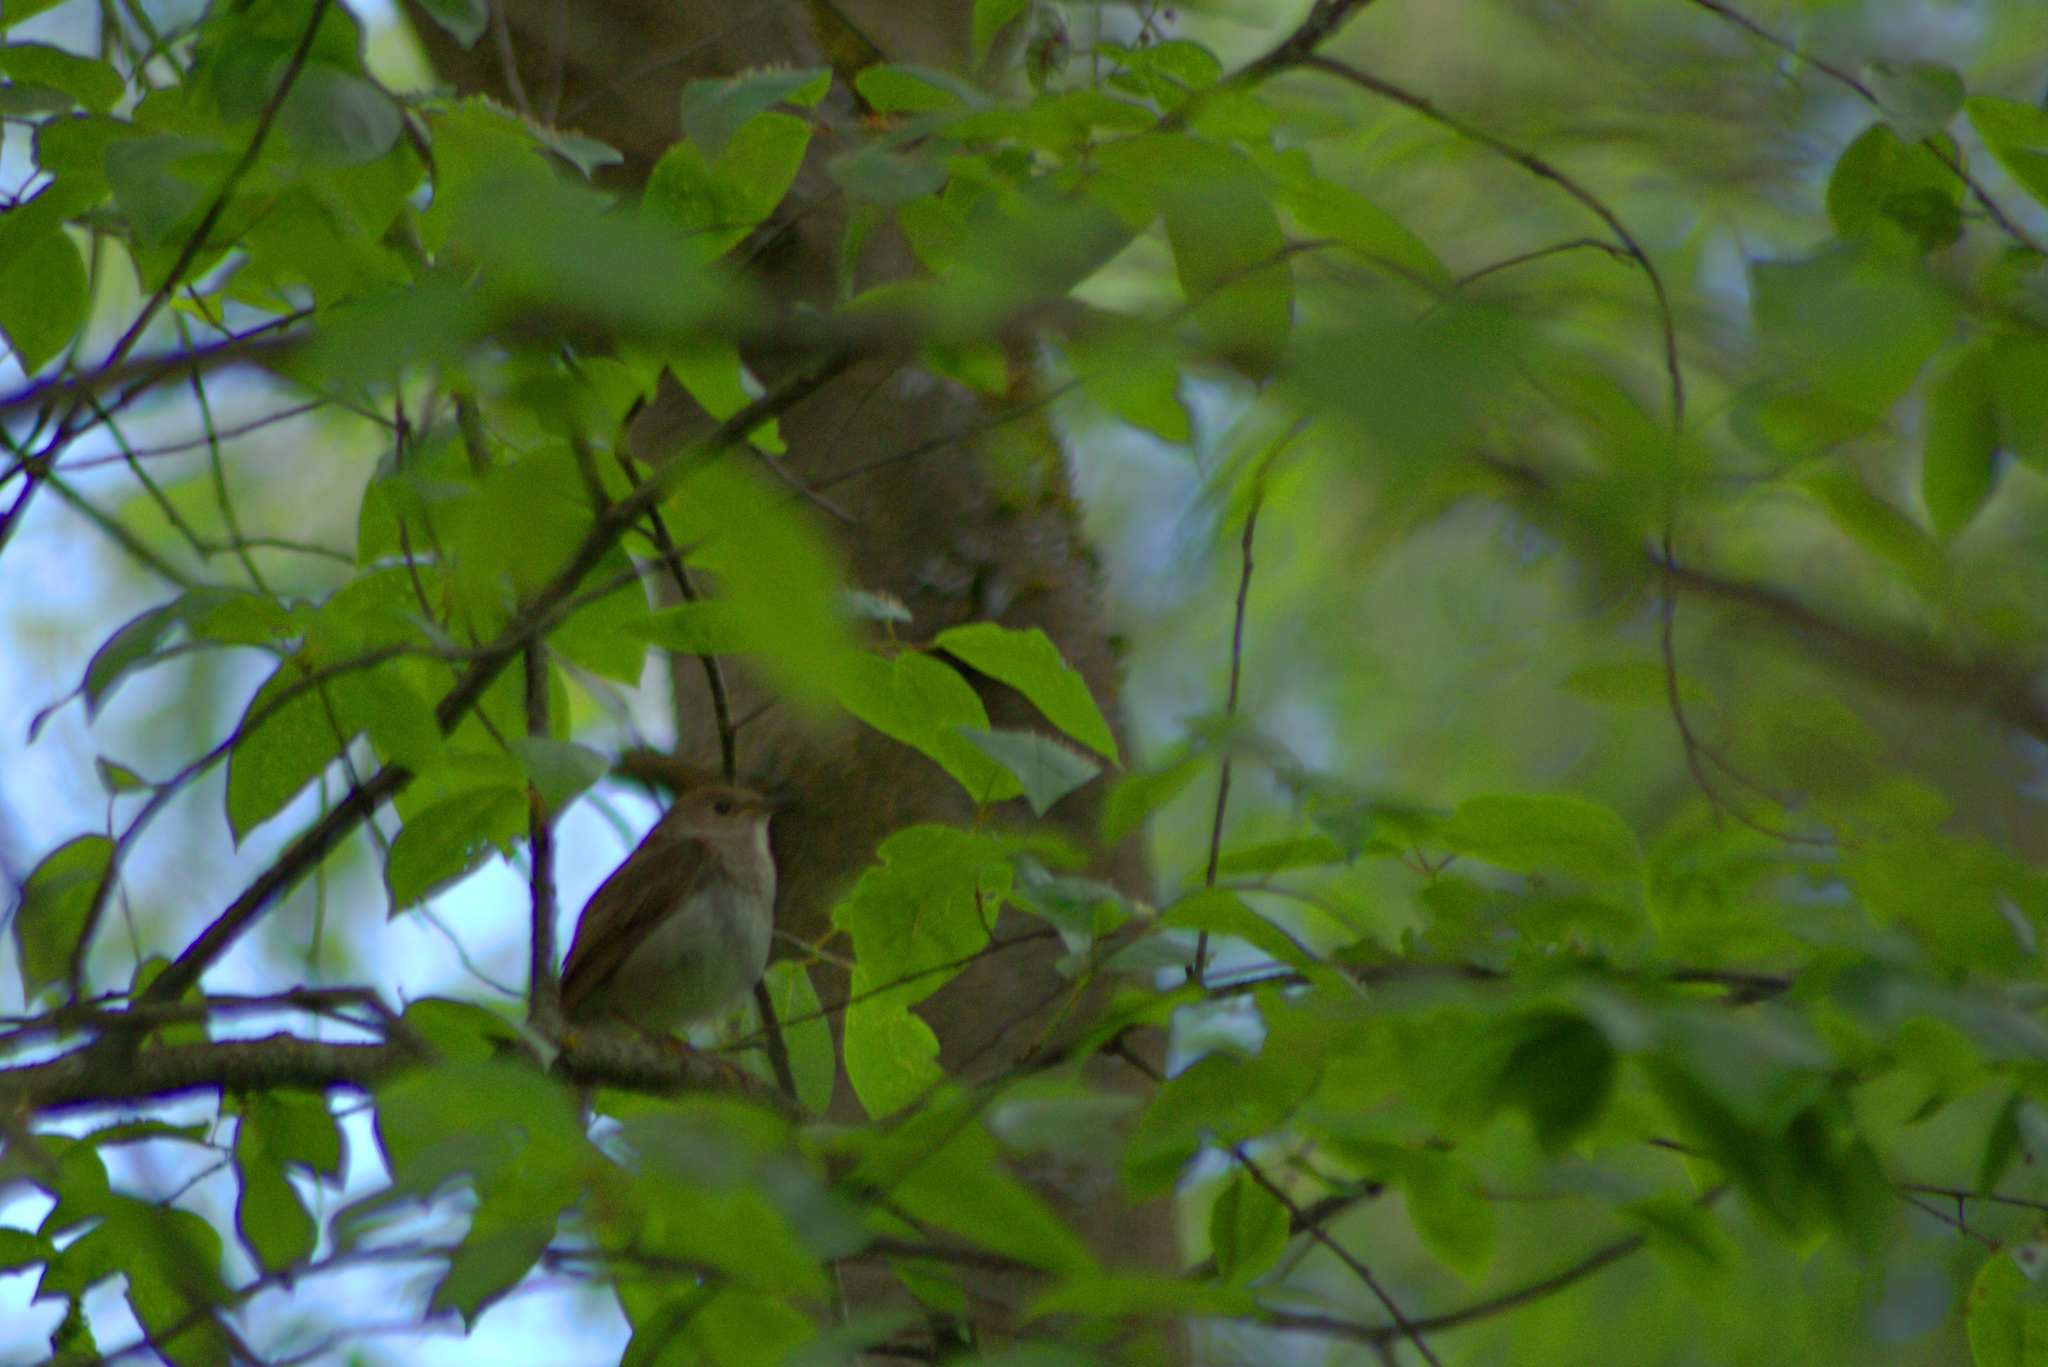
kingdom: Animalia
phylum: Chordata
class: Aves
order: Passeriformes
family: Muscicapidae
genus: Luscinia
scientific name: Luscinia luscinia
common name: Thrush nightingale
